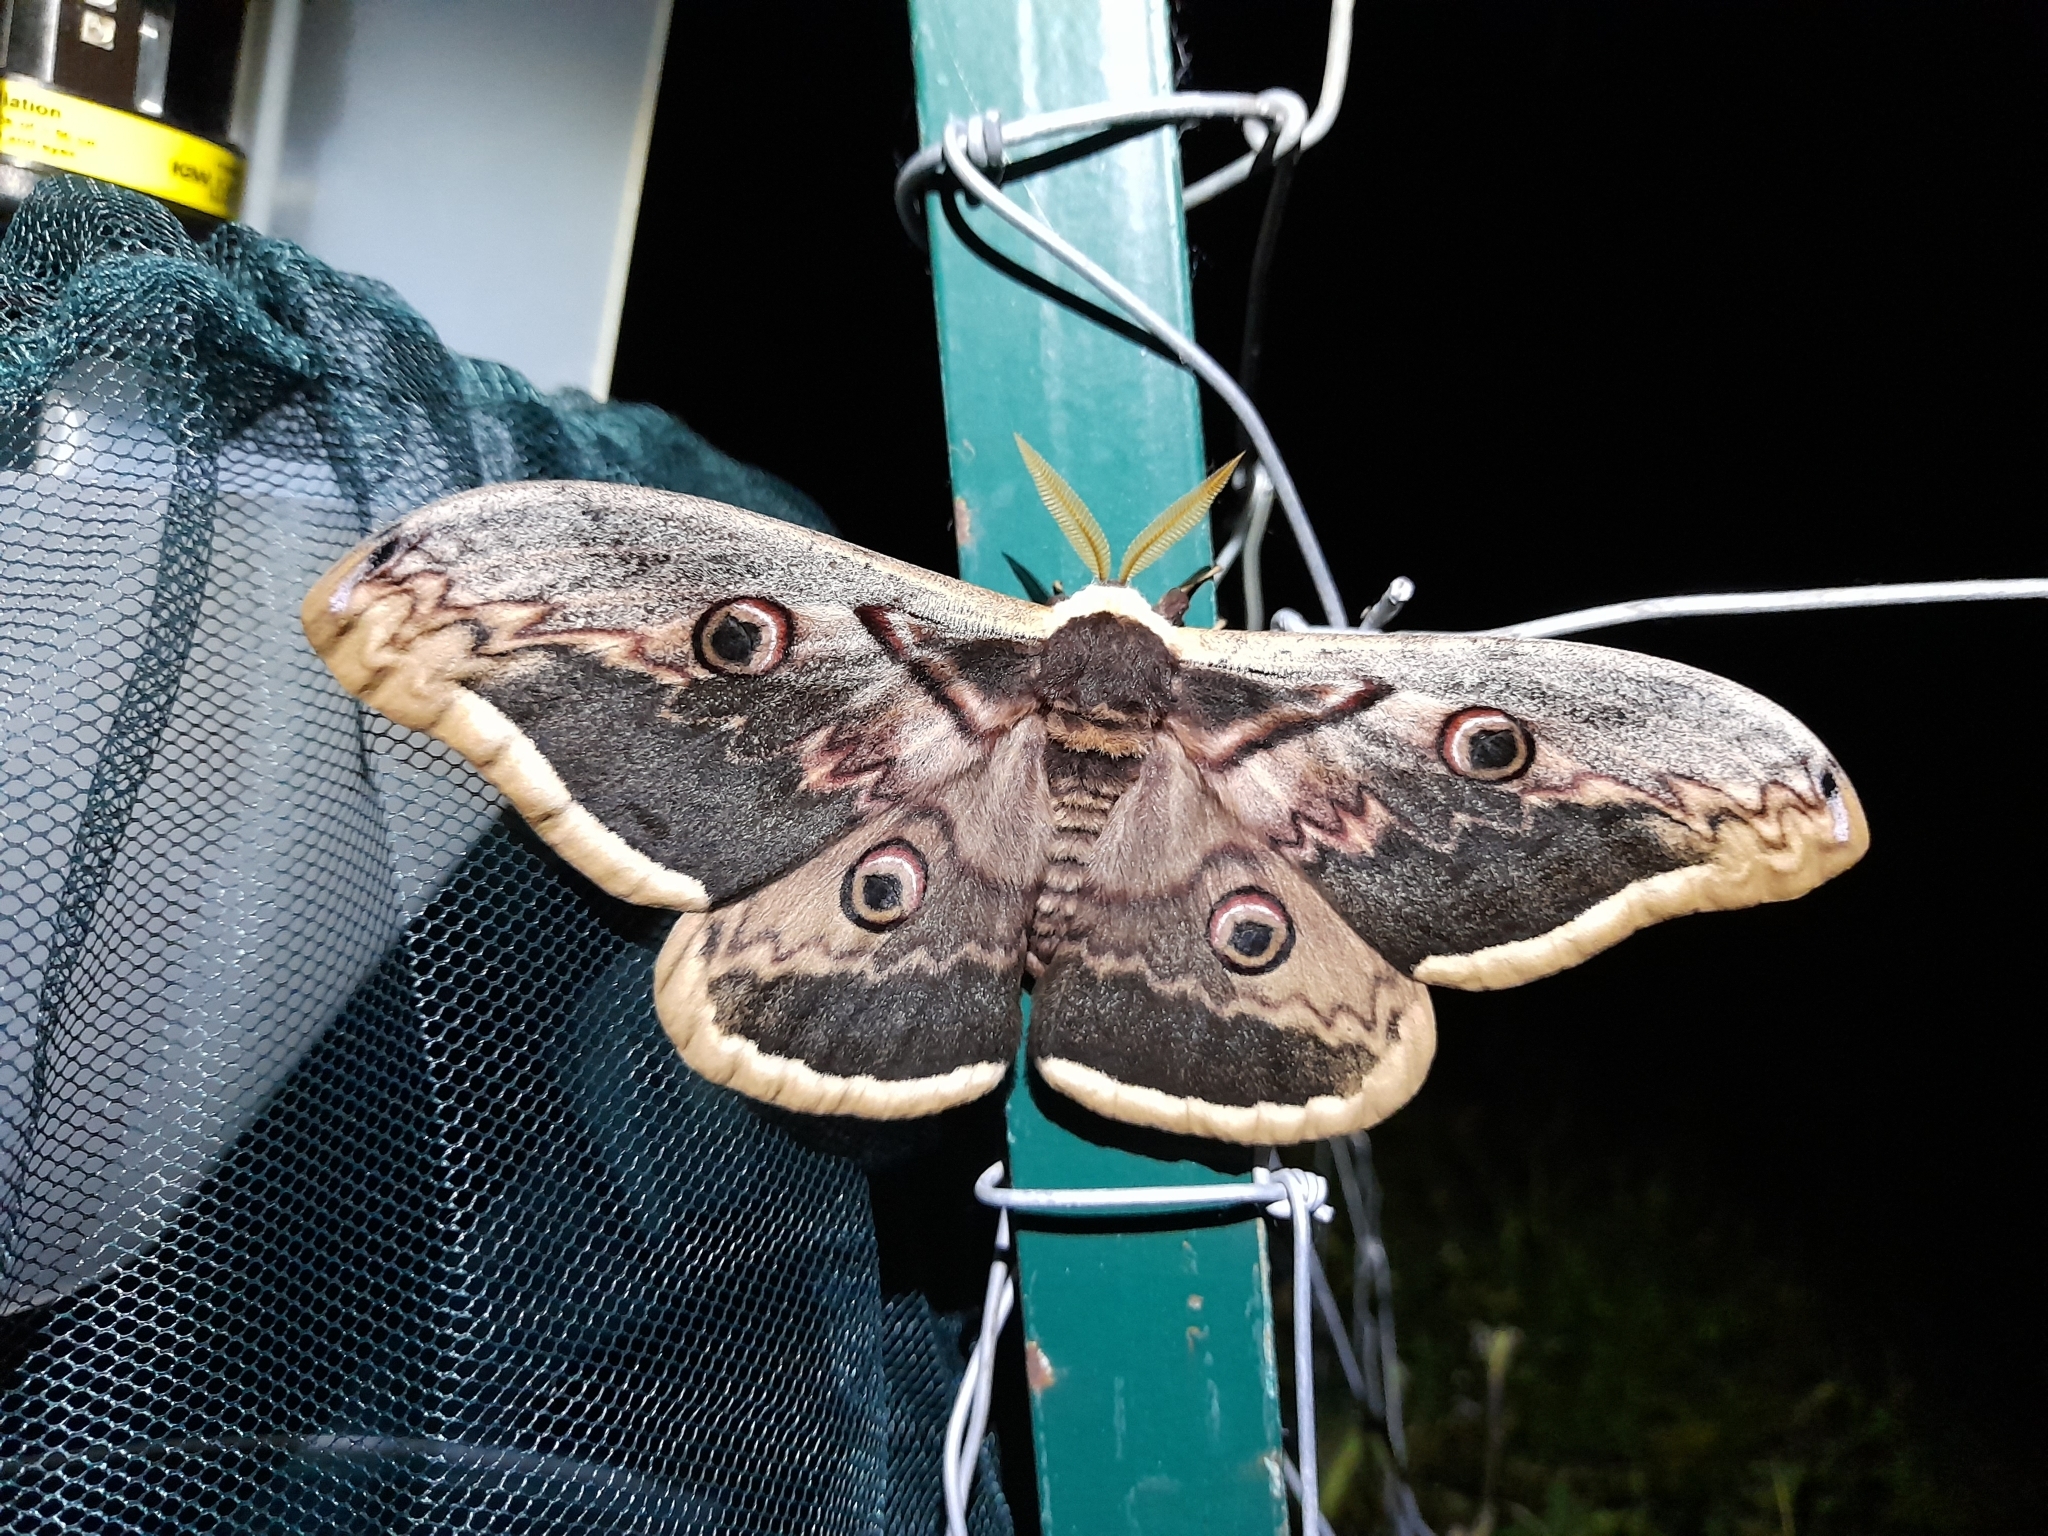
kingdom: Animalia
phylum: Arthropoda
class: Insecta
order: Lepidoptera
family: Saturniidae
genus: Saturnia
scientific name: Saturnia pyri
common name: Great peacock moth
